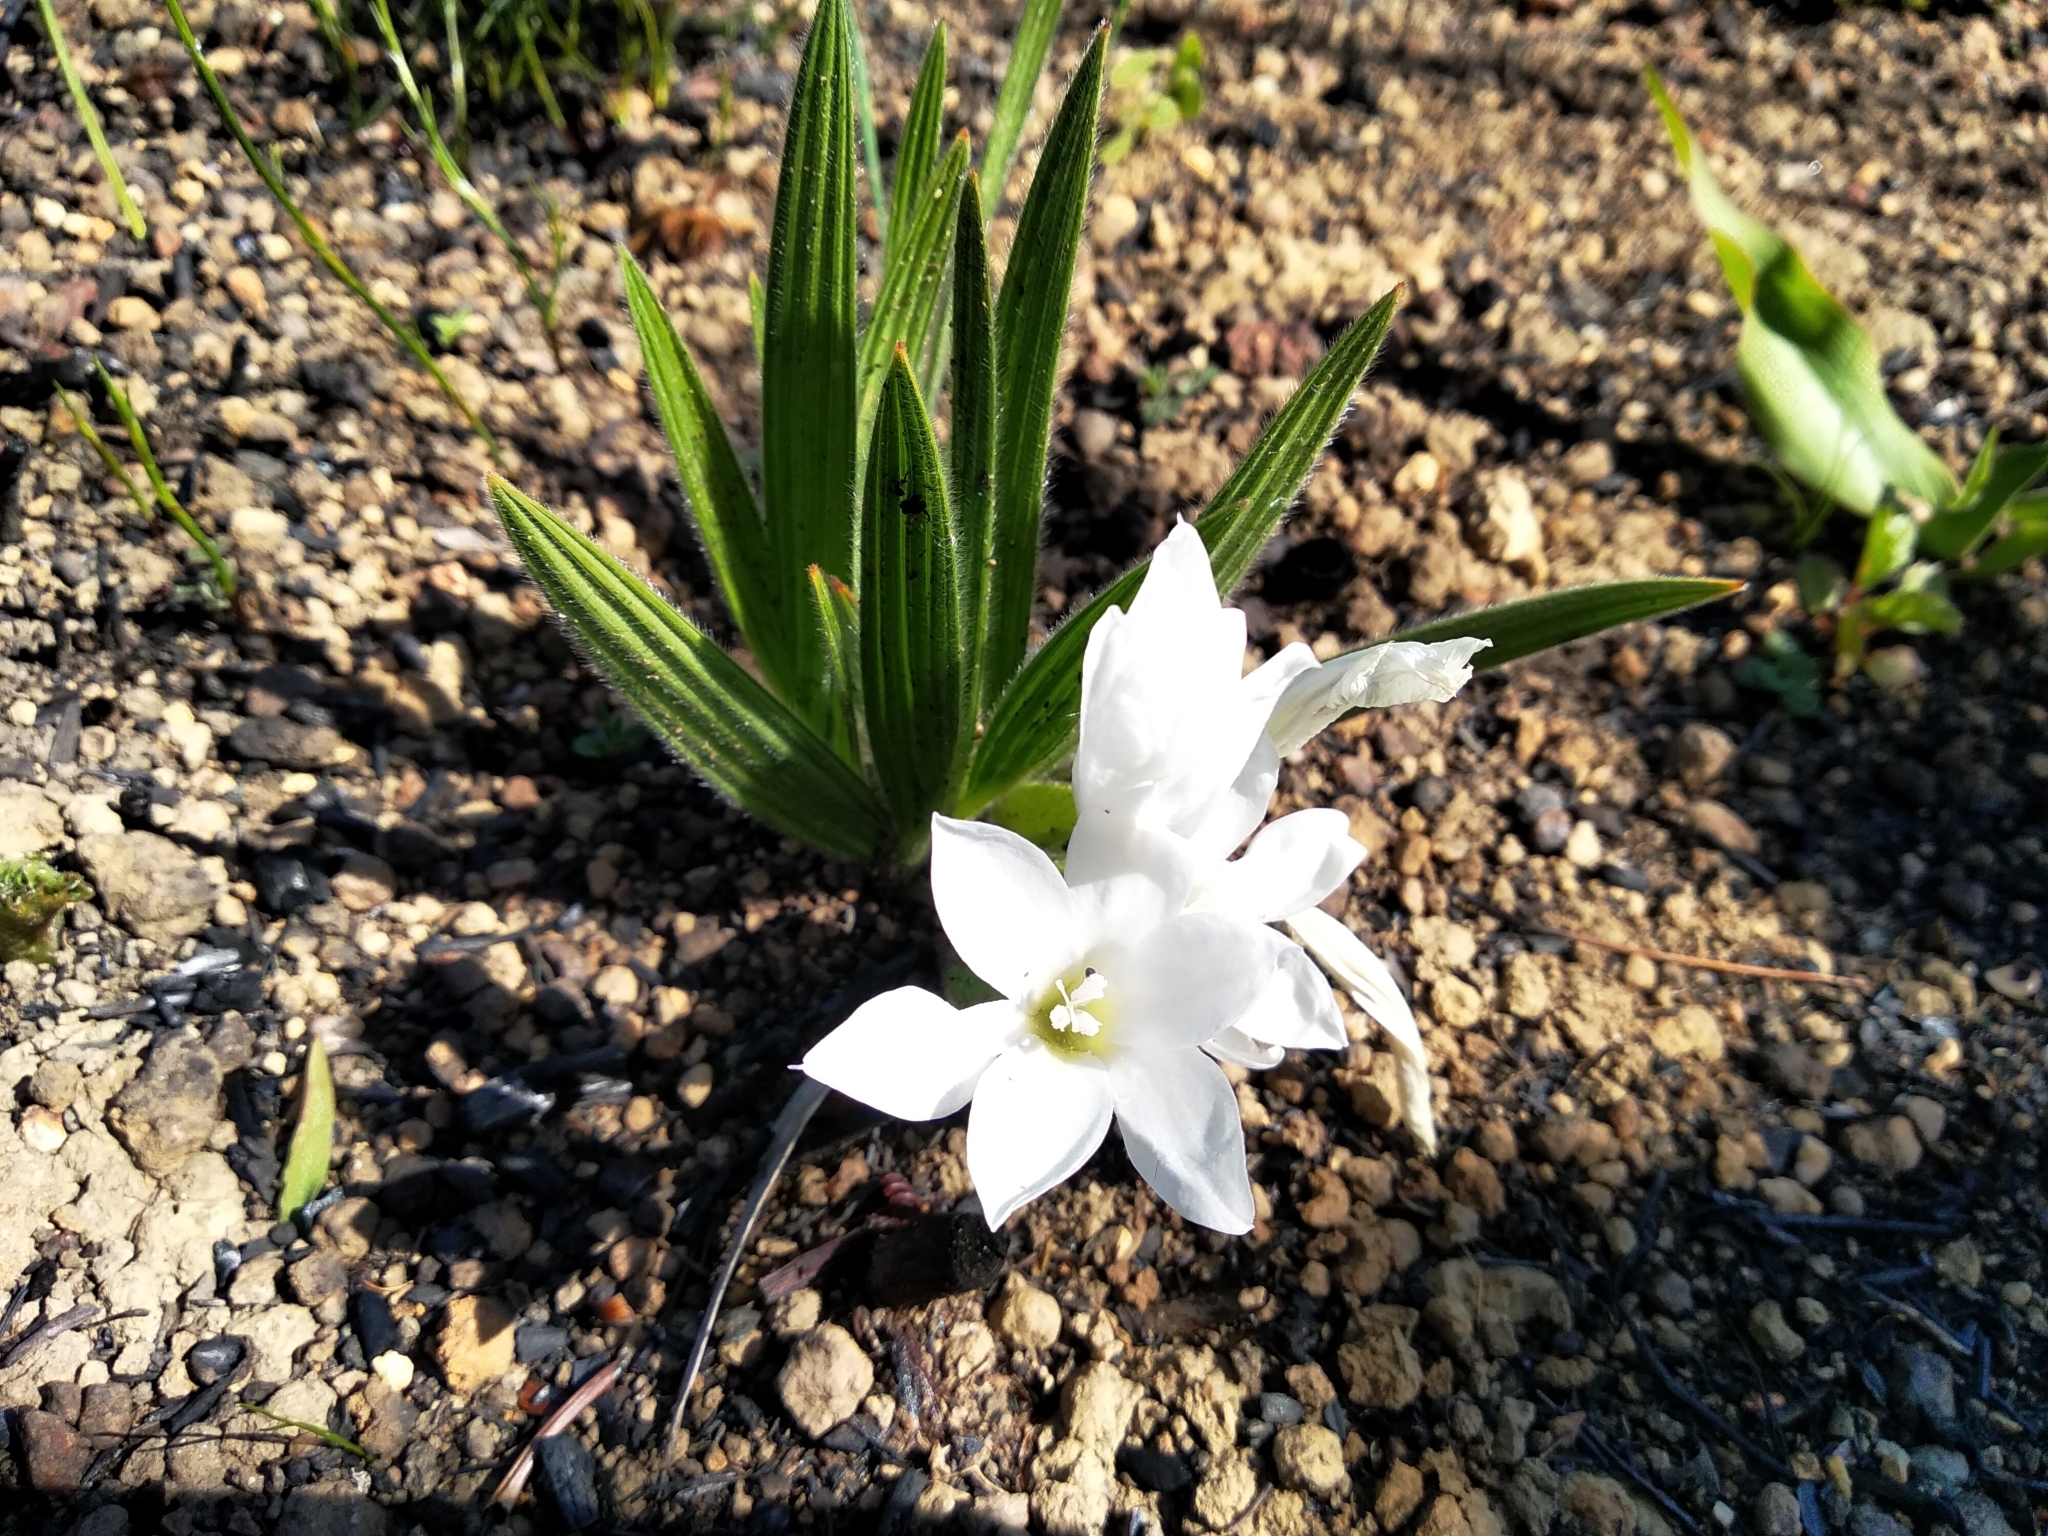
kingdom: Plantae
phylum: Tracheophyta
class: Liliopsida
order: Asparagales
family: Iridaceae
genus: Babiana
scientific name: Babiana villosula
